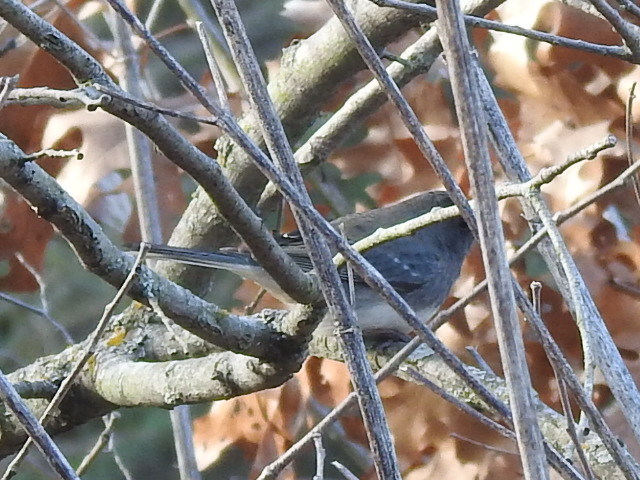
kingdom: Animalia
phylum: Chordata
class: Aves
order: Passeriformes
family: Passerellidae
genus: Junco
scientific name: Junco hyemalis
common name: Dark-eyed junco
